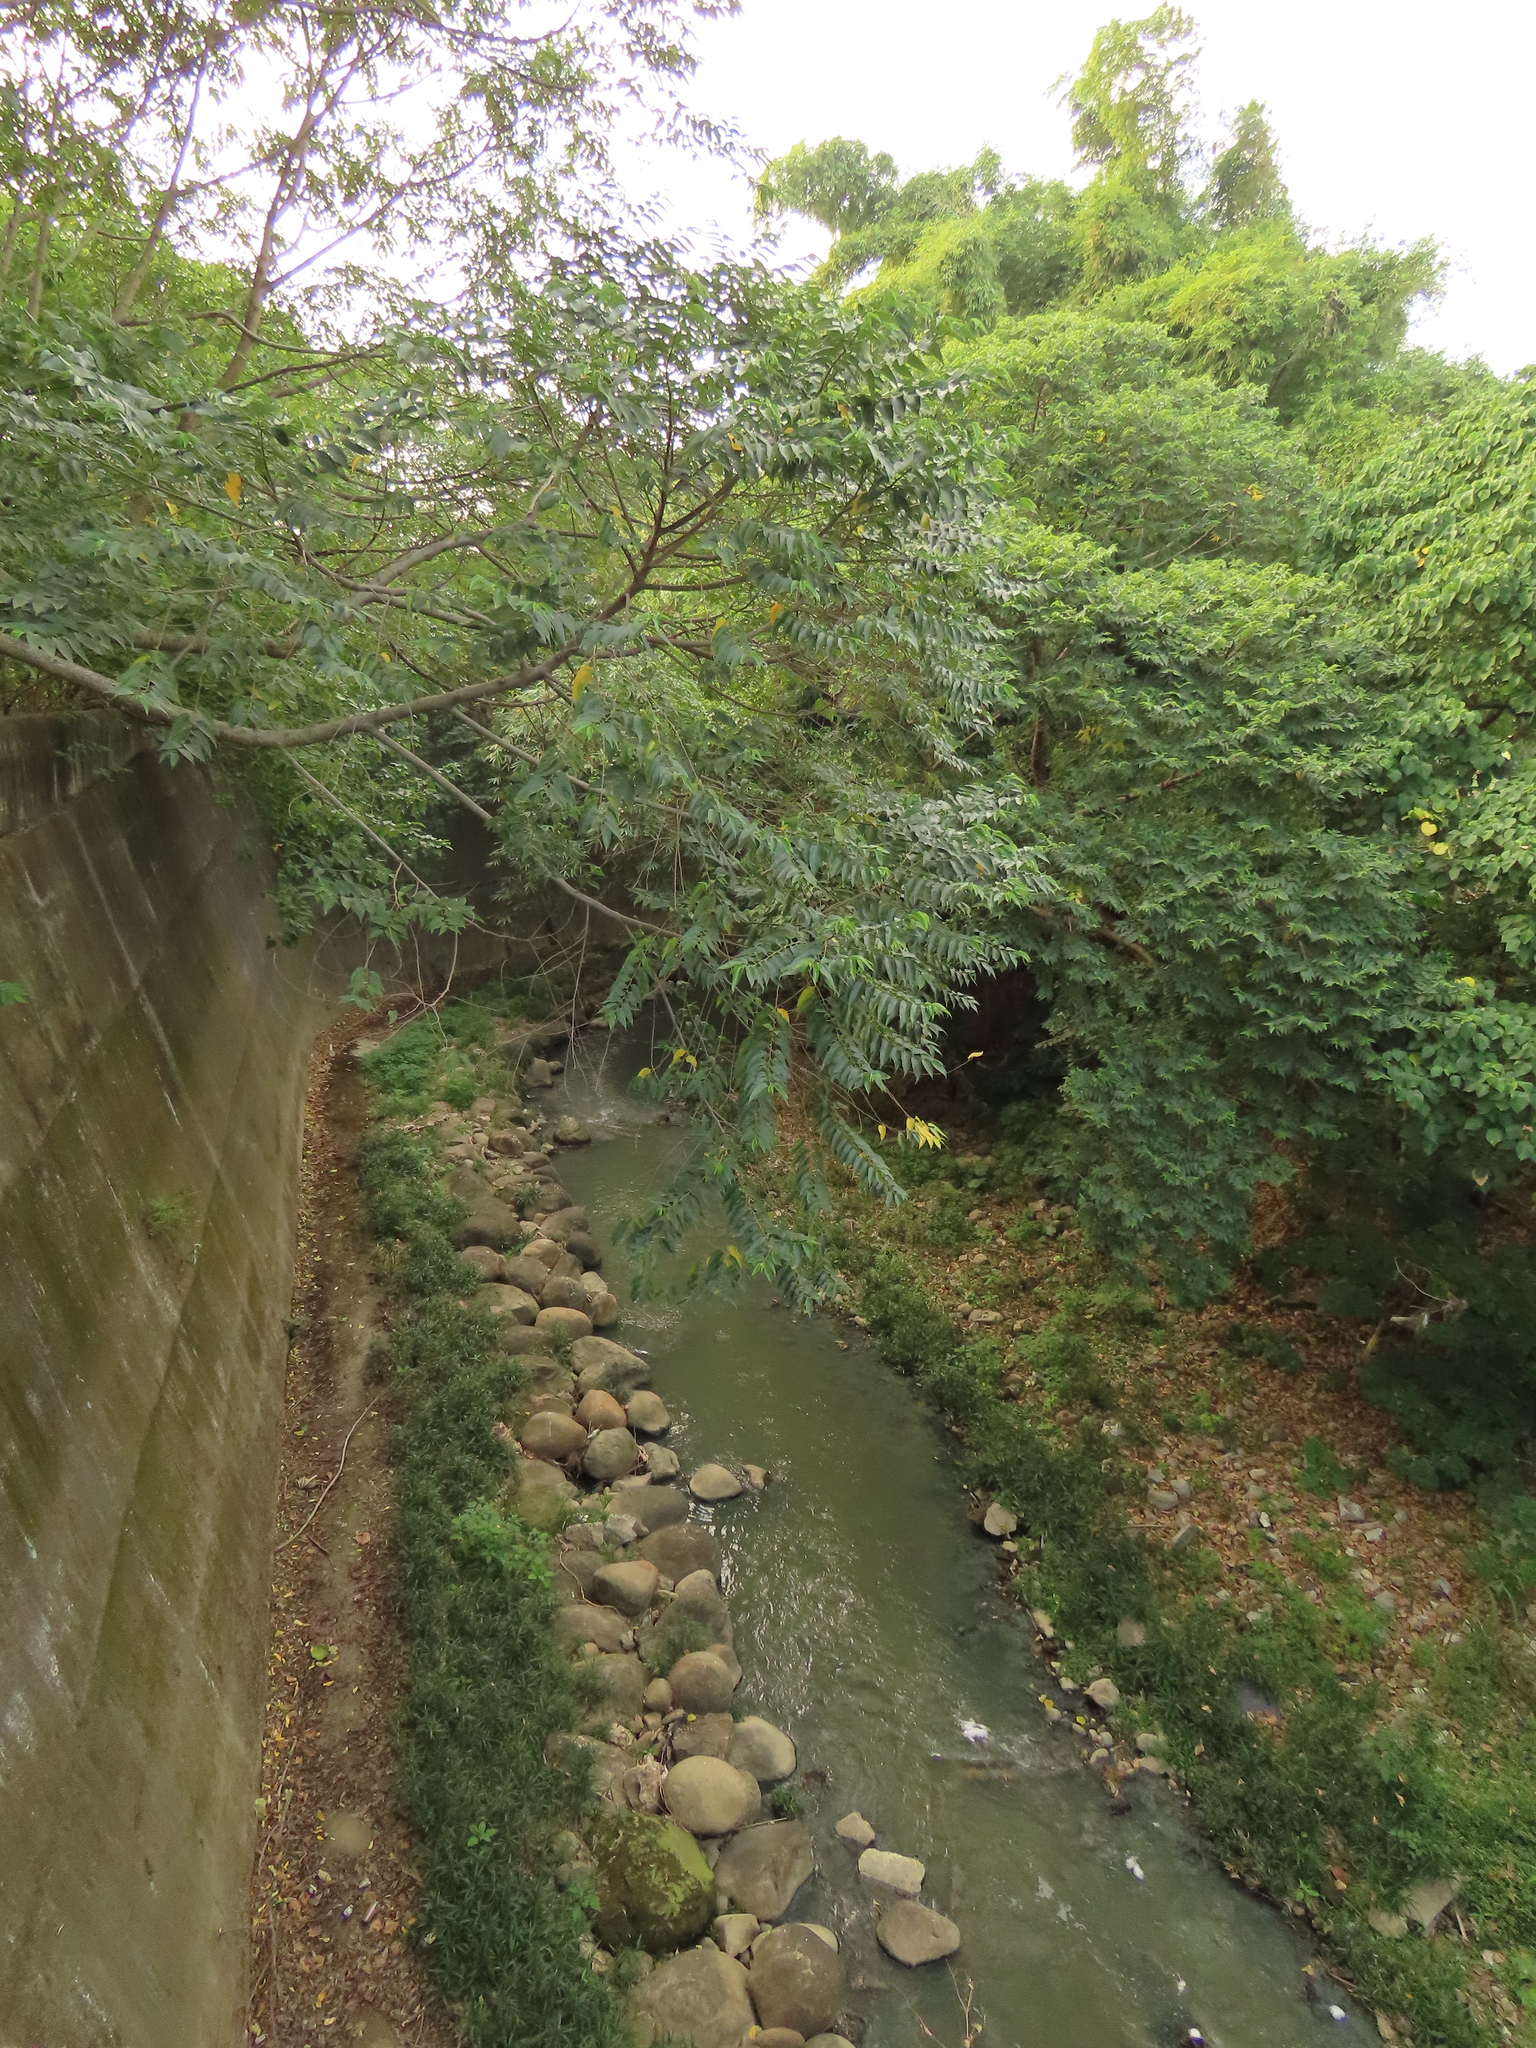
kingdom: Plantae
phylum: Tracheophyta
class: Magnoliopsida
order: Lamiales
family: Acanthaceae
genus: Ruellia
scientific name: Ruellia simplex
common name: Softseed wild petunia
